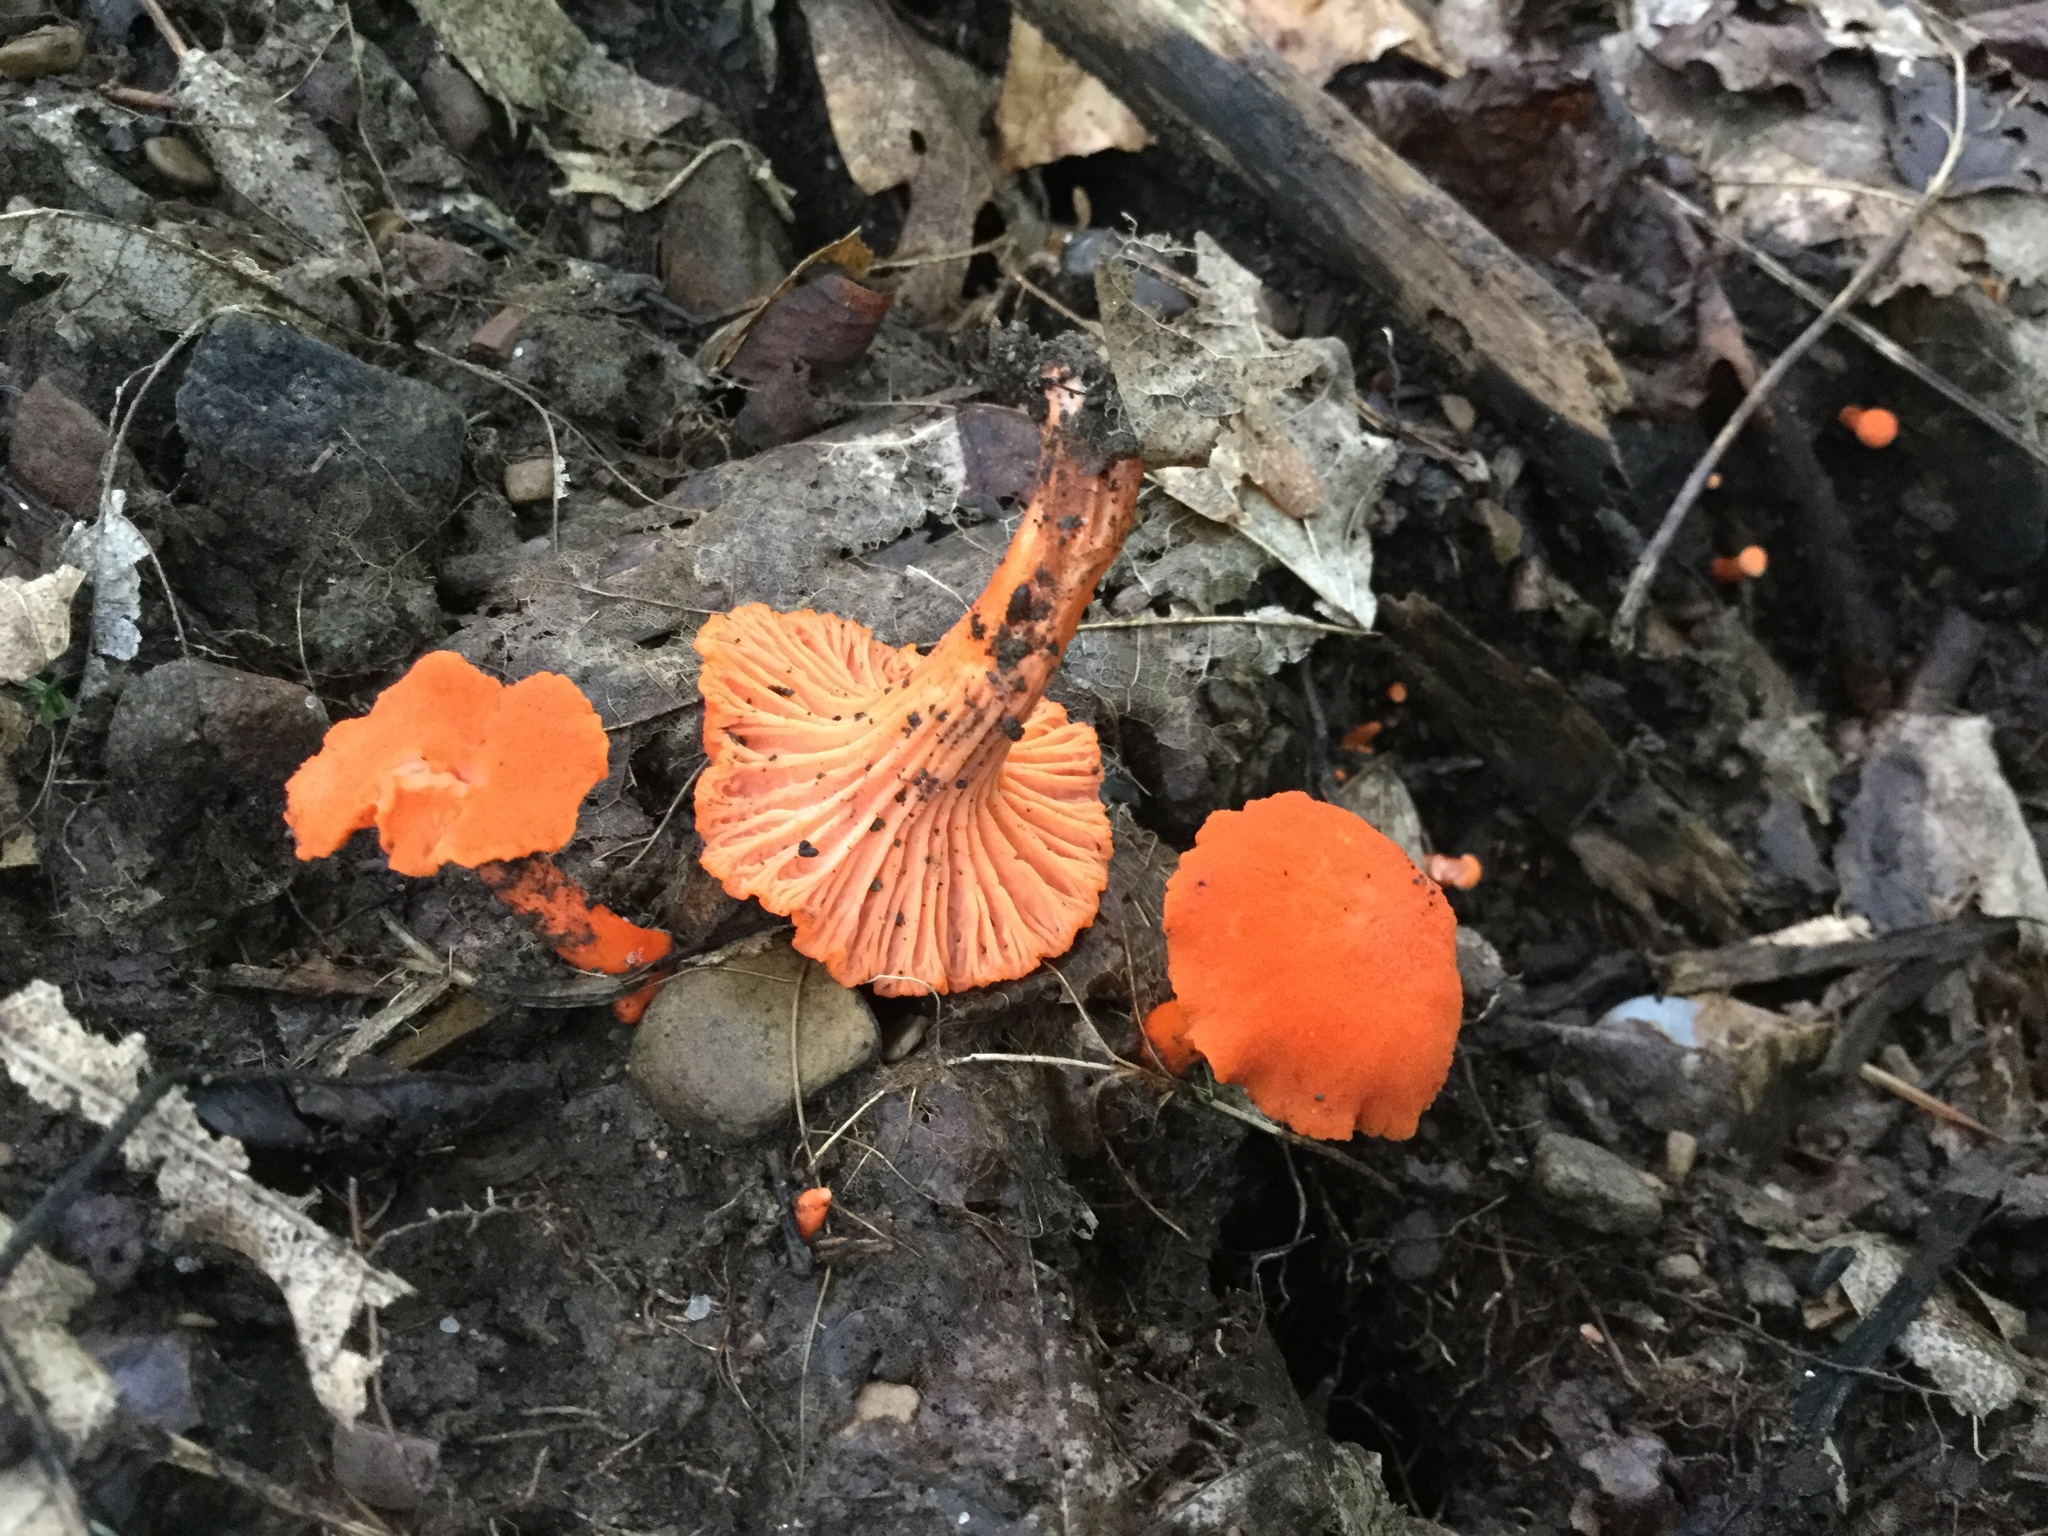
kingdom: Fungi
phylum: Basidiomycota
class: Agaricomycetes
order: Cantharellales
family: Hydnaceae
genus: Cantharellus
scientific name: Cantharellus cinnabarinus
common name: Cinnabar chanterelle
